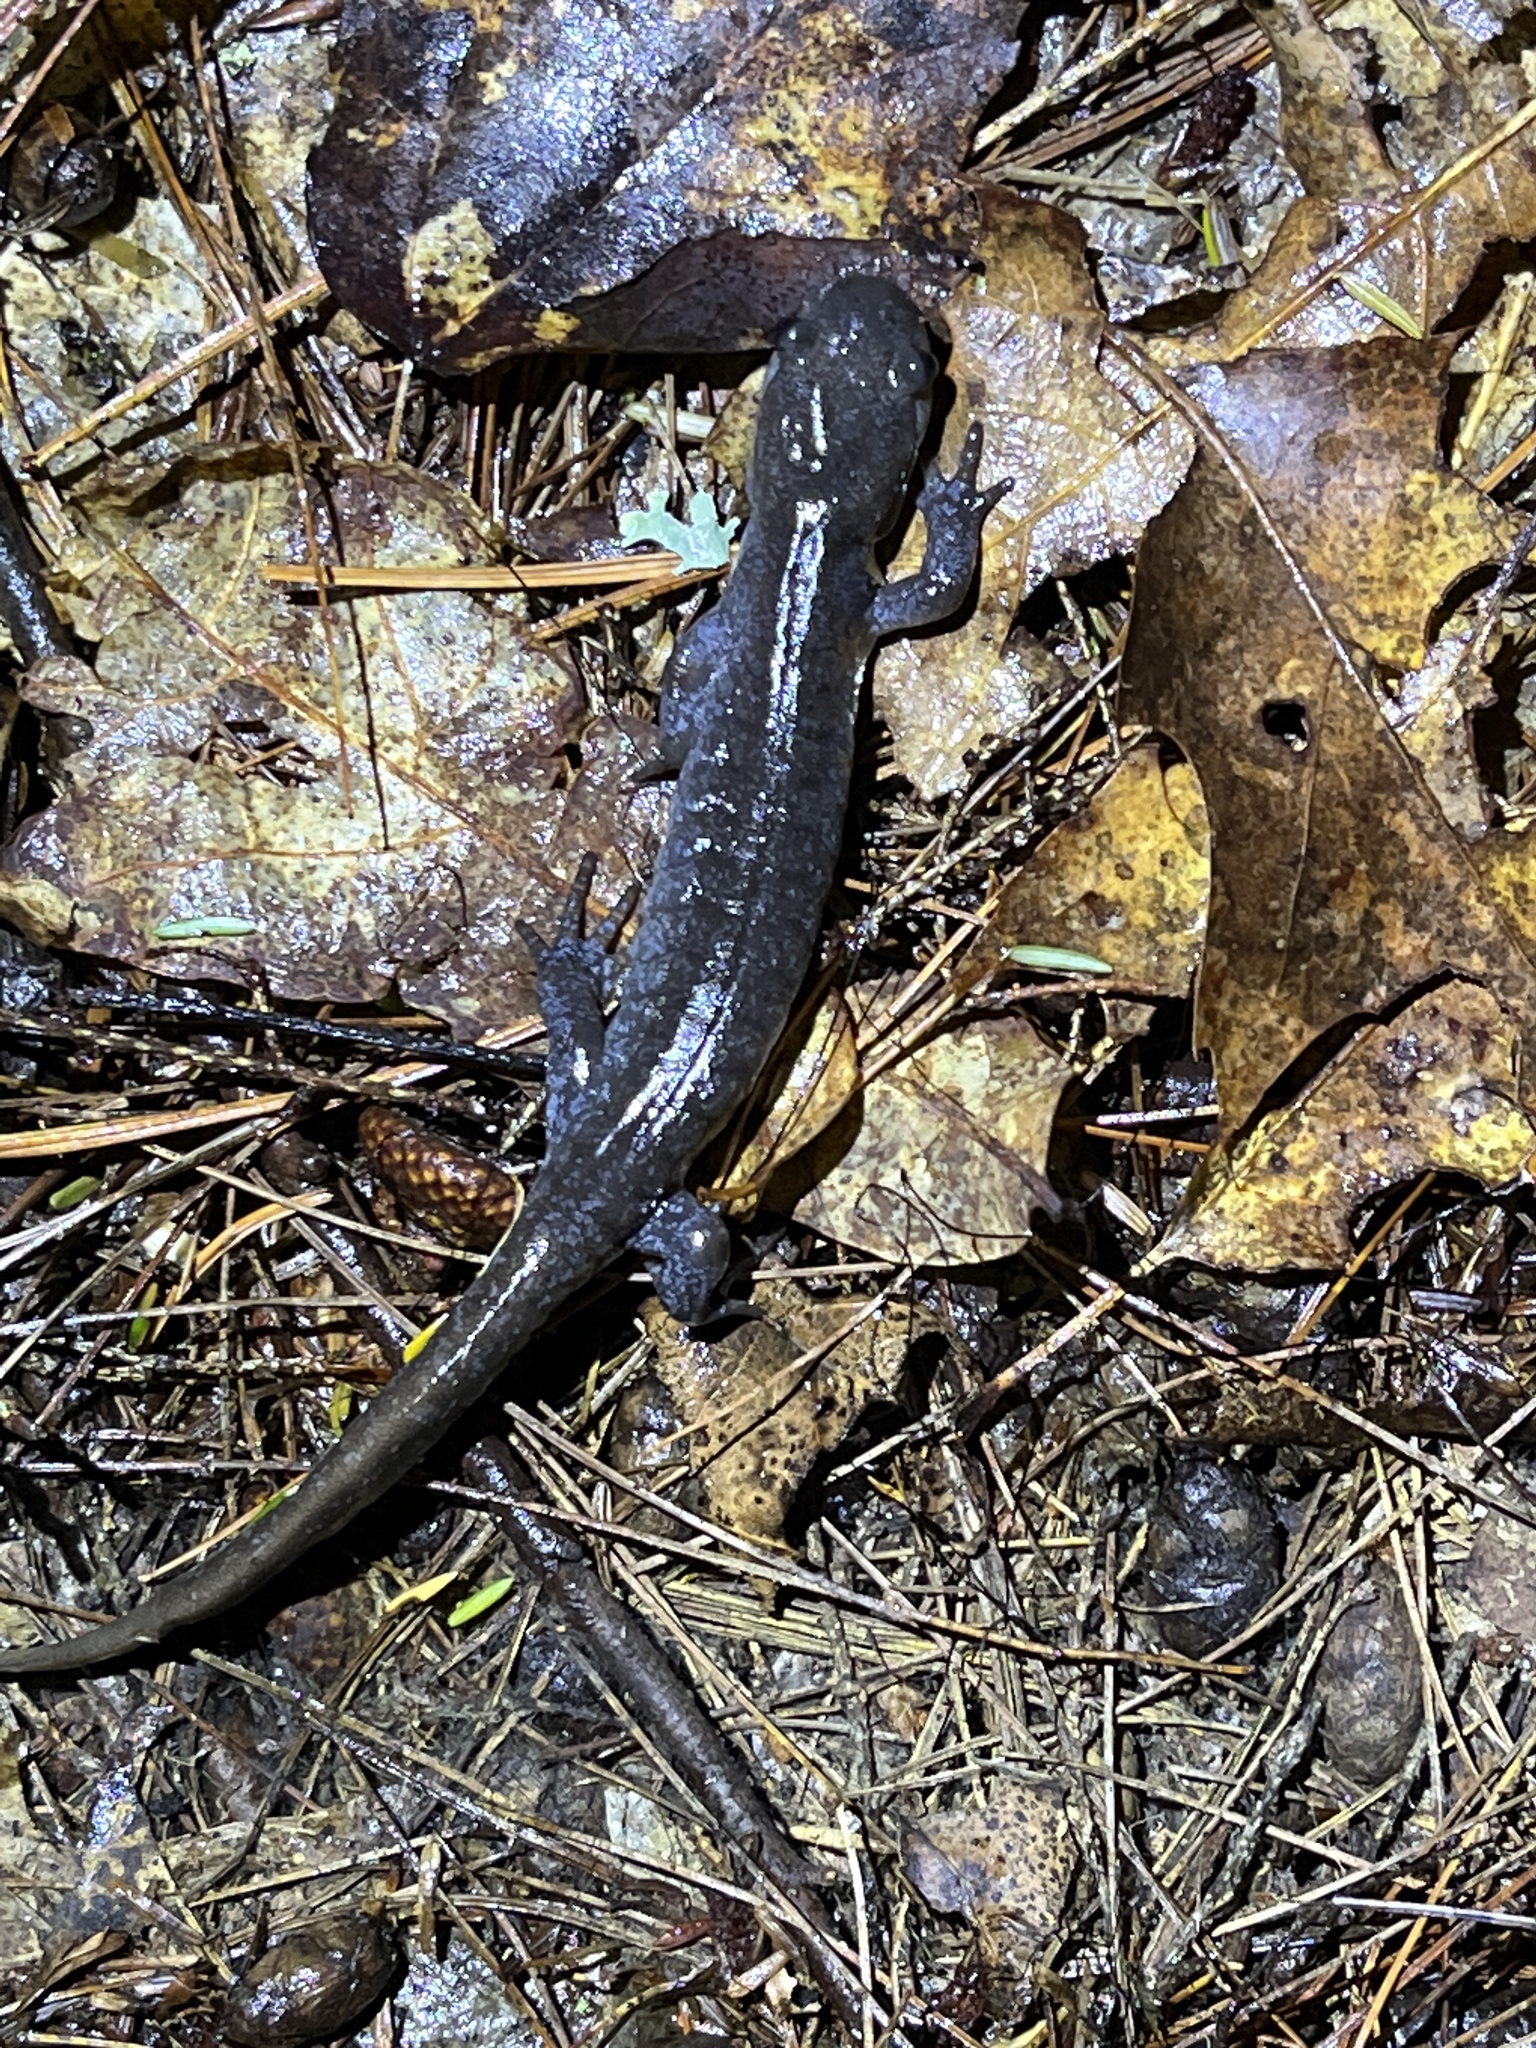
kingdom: Animalia
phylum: Chordata
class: Amphibia
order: Caudata
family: Ambystomatidae
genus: Ambystoma
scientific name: Ambystoma jeffersonianum
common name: Jefferson salamander
